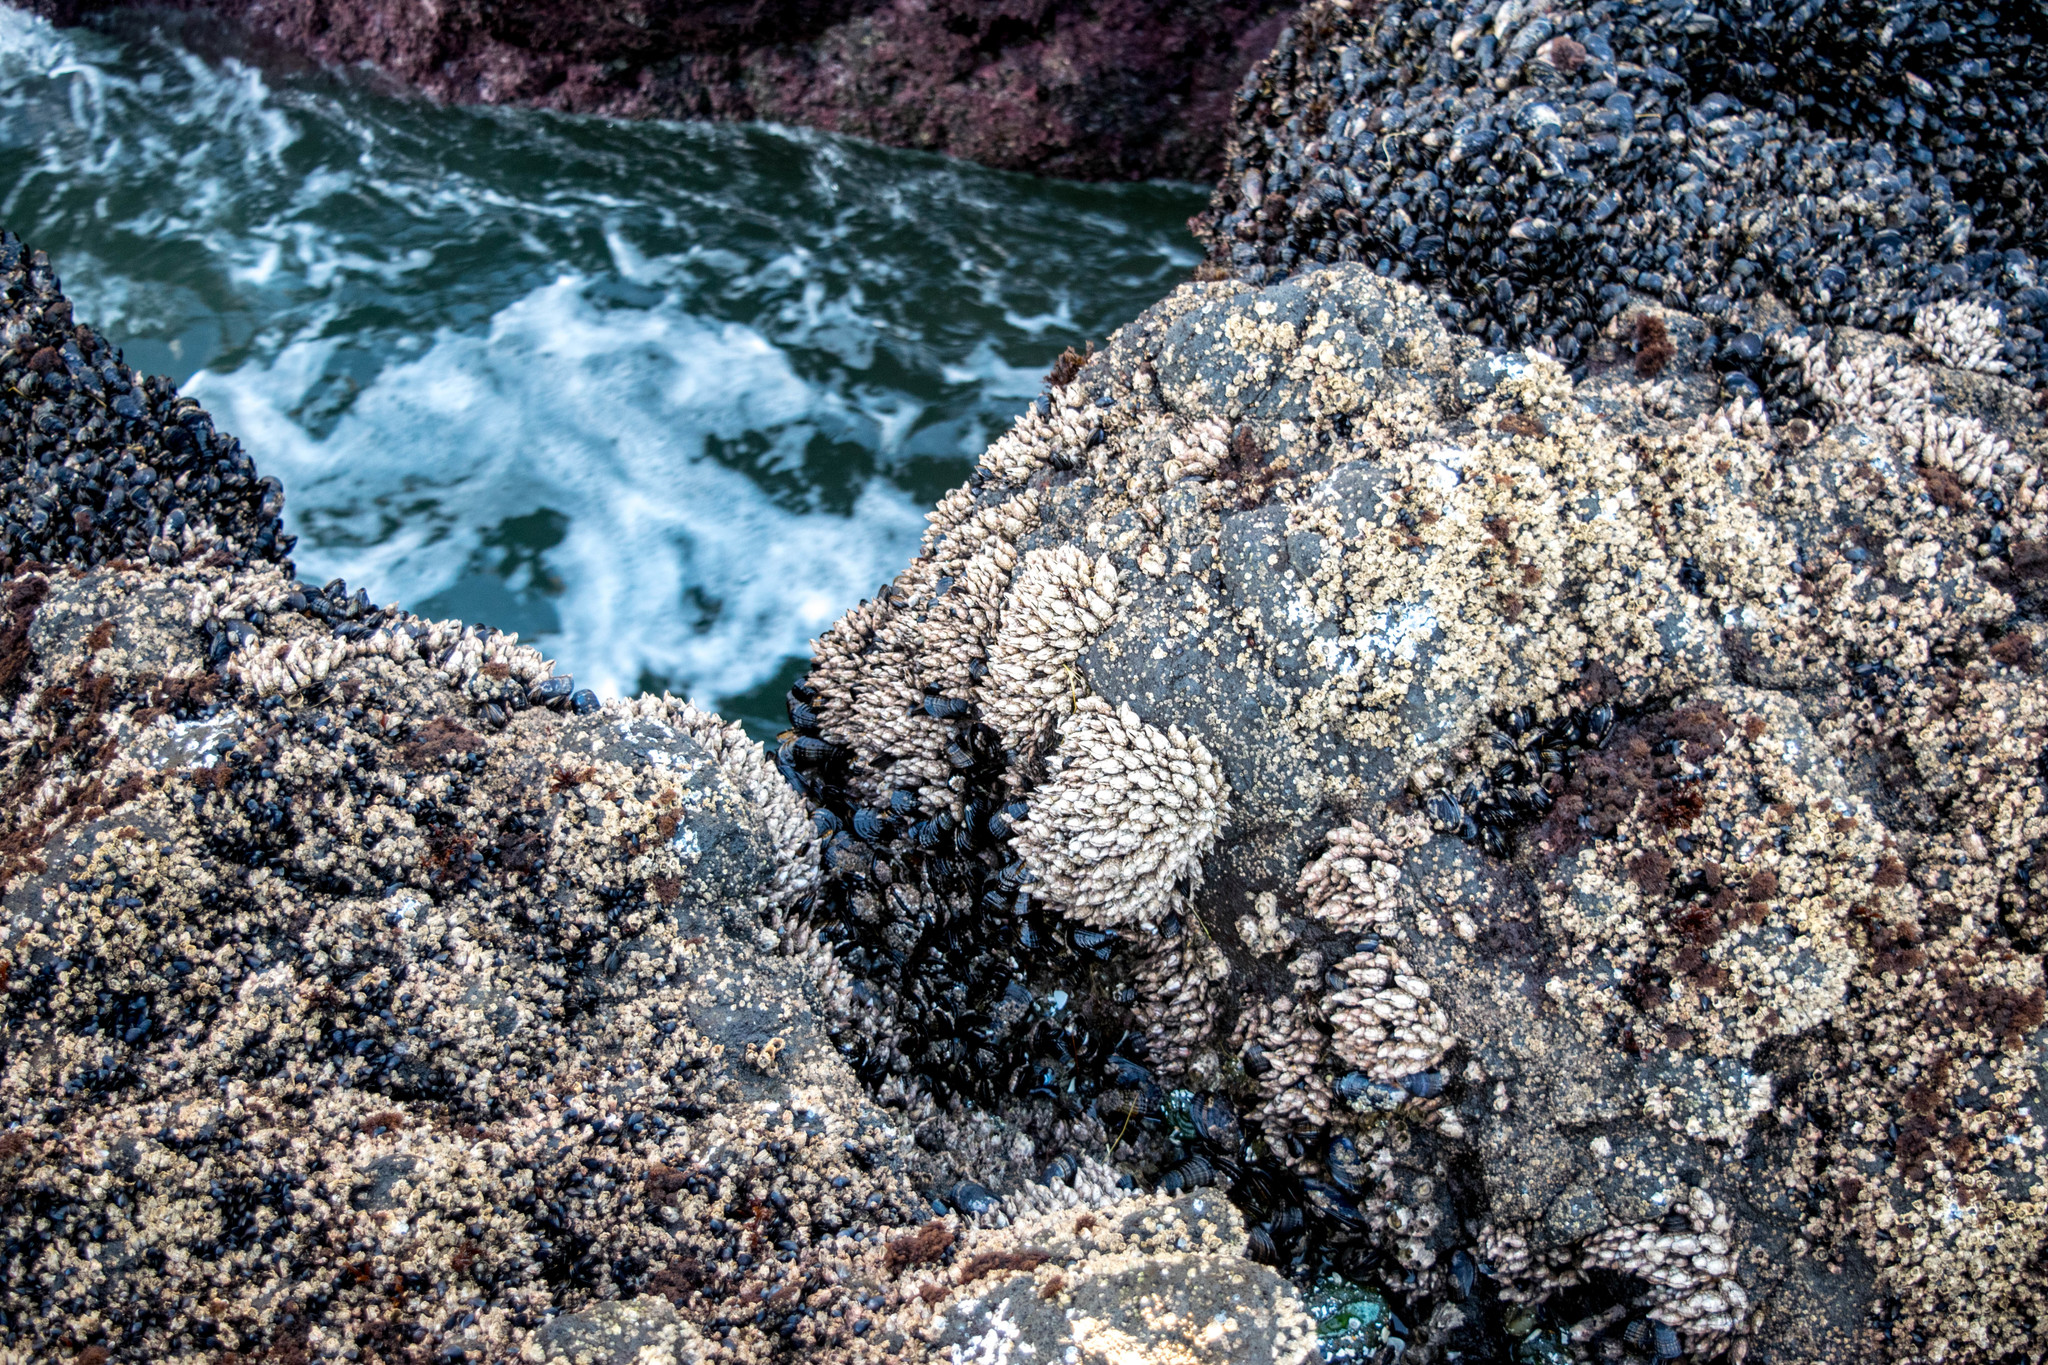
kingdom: Animalia
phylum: Arthropoda
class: Maxillopoda
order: Pedunculata
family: Pollicipedidae
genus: Pollicipes
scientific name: Pollicipes polymerus
